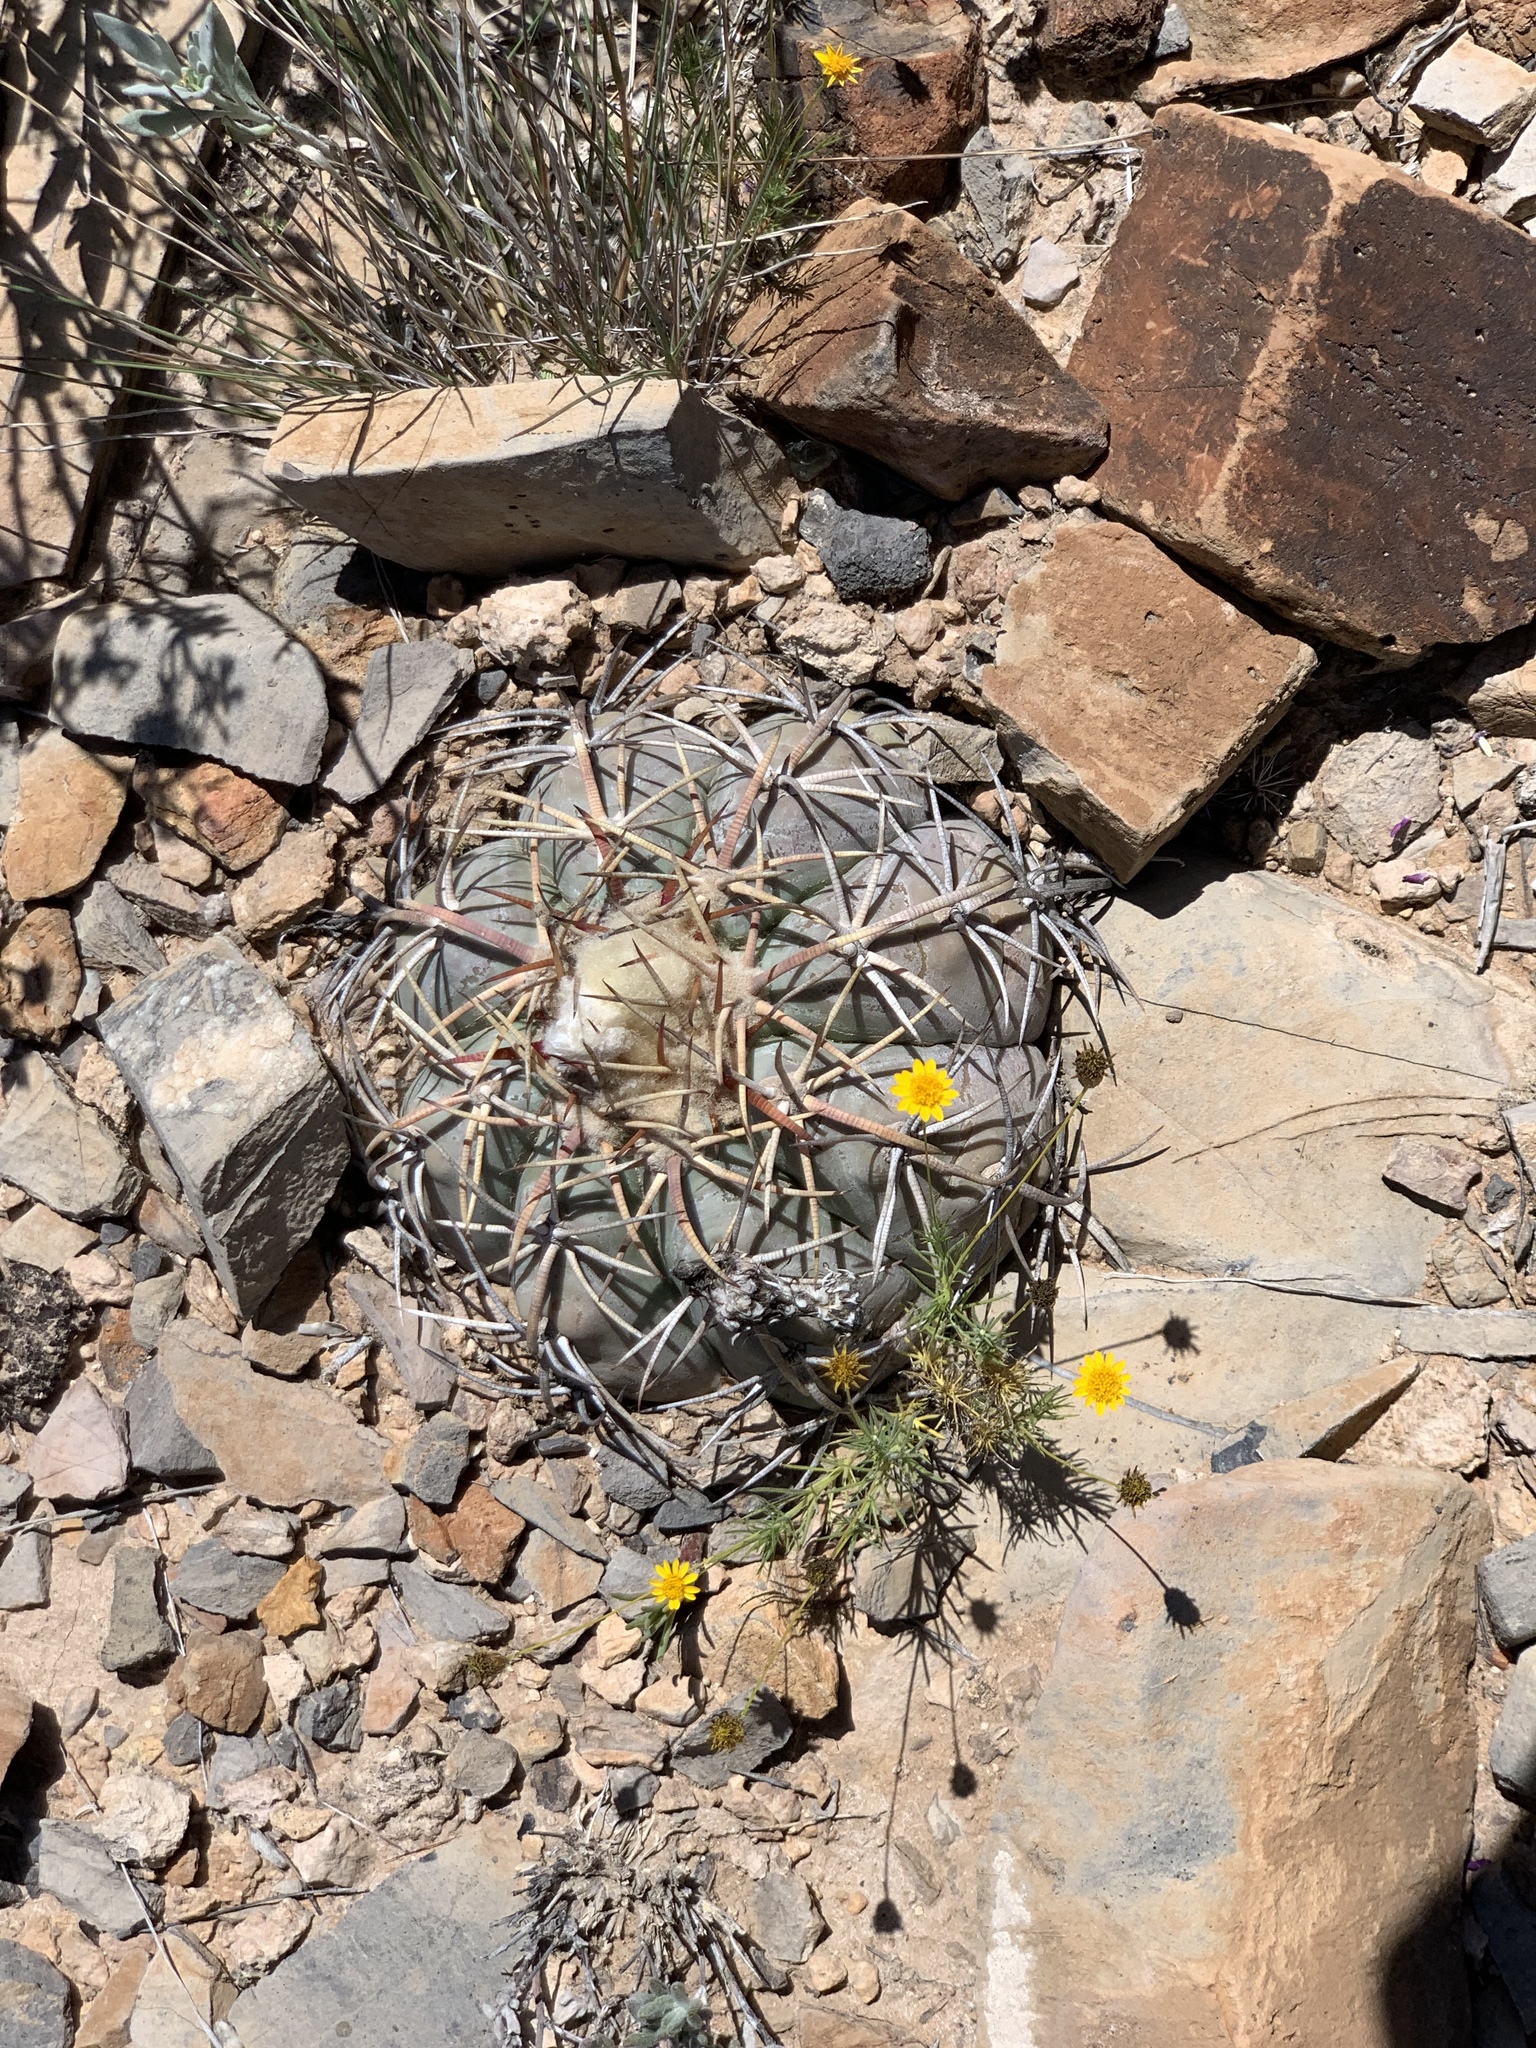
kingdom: Plantae
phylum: Tracheophyta
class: Magnoliopsida
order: Caryophyllales
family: Cactaceae
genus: Echinocactus
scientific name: Echinocactus horizonthalonius
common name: Devilshead
